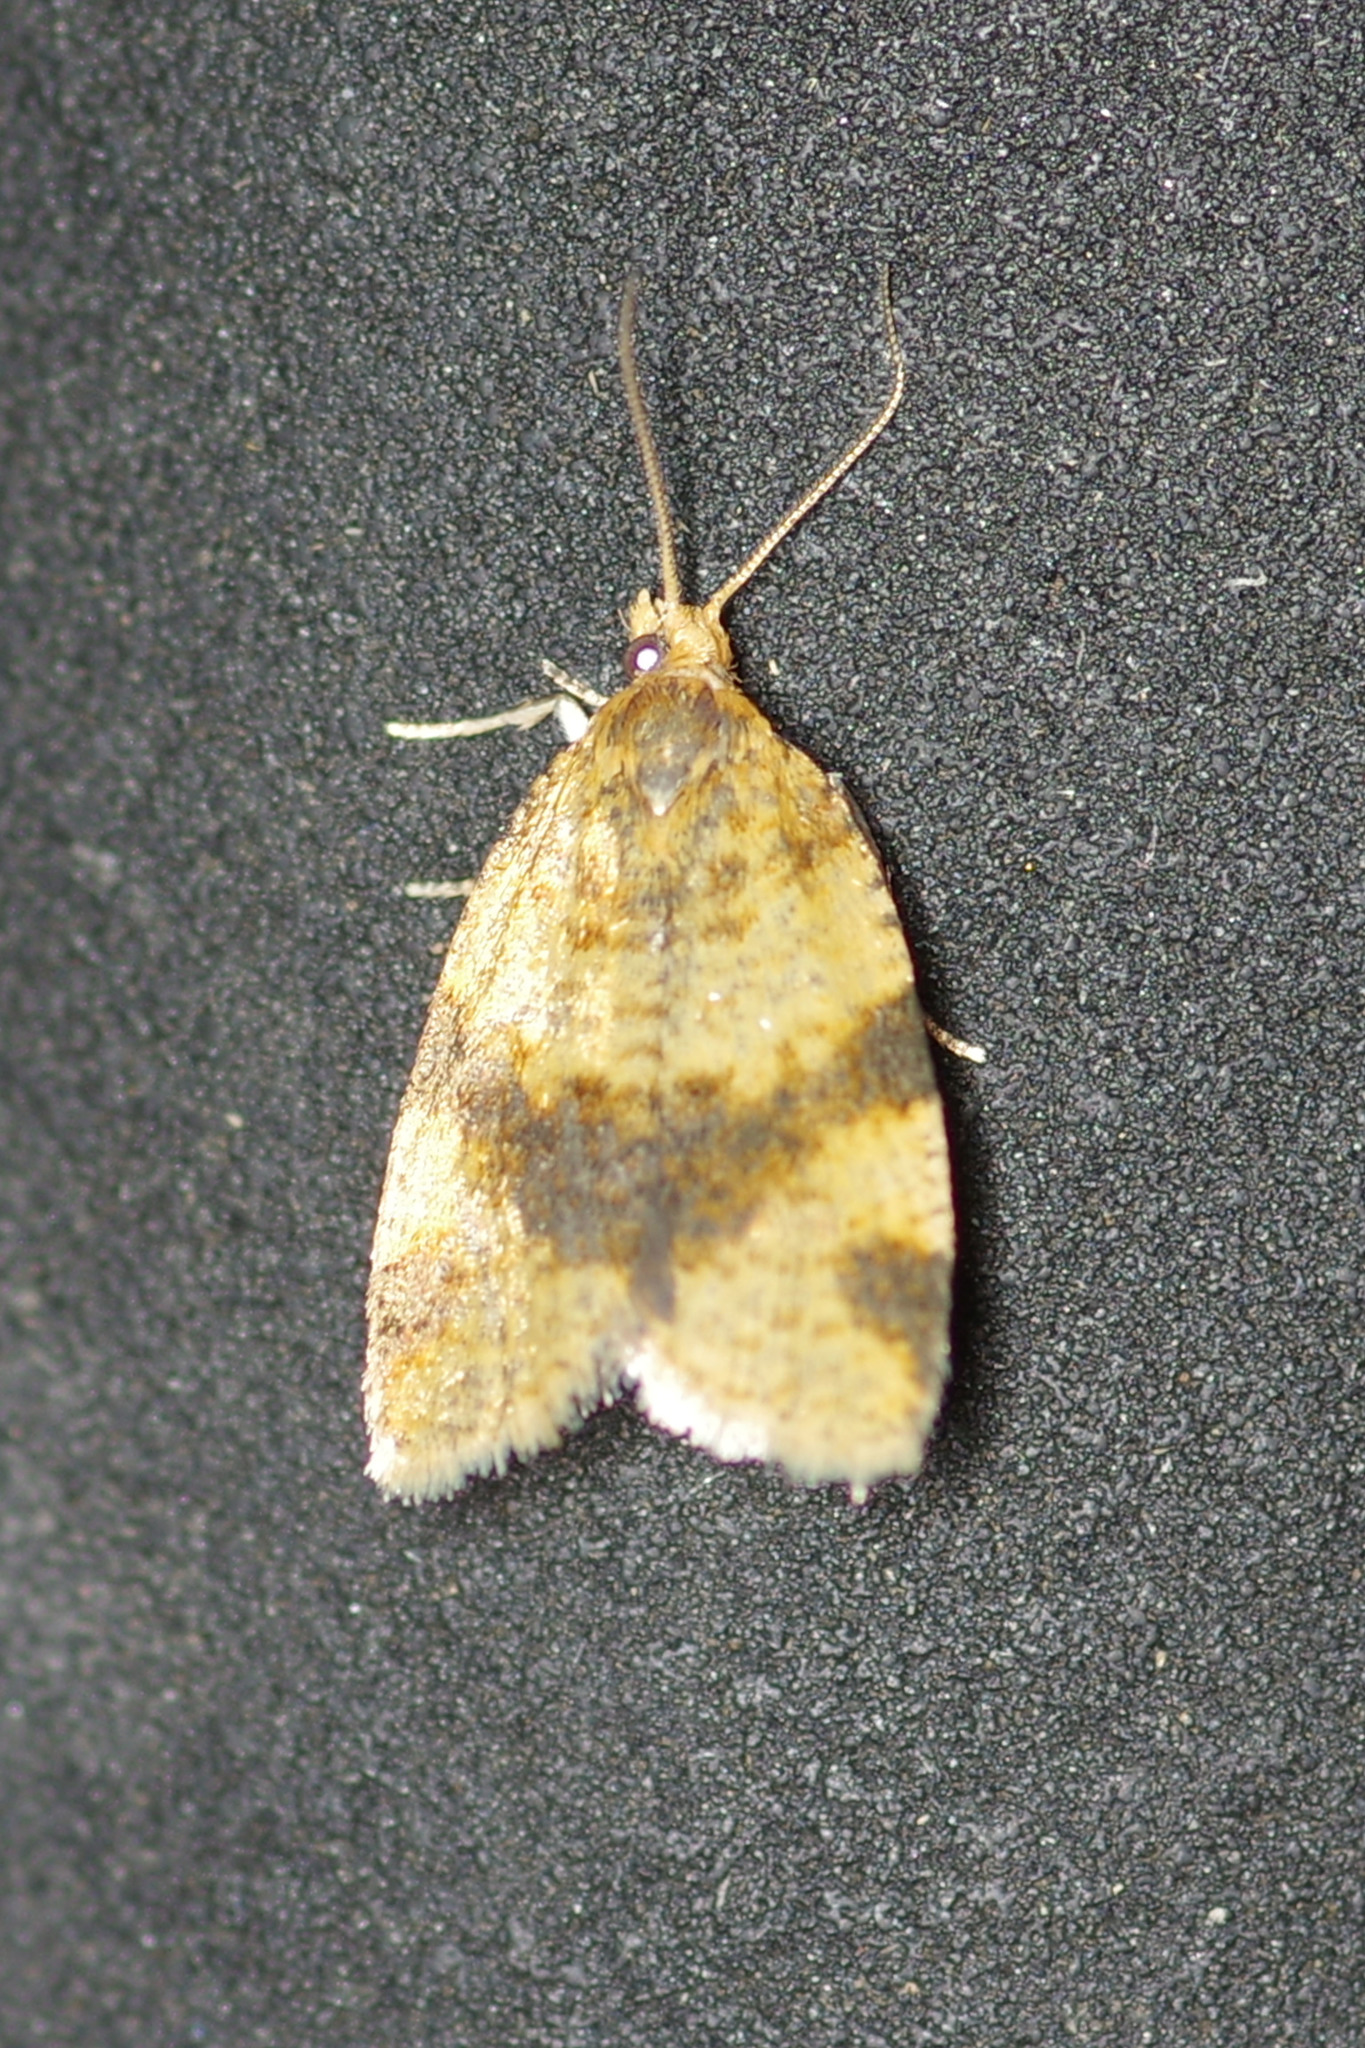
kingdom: Animalia
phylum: Arthropoda
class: Insecta
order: Lepidoptera
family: Tortricidae
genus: Epagoge
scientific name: Epagoge grotiana
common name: Brown-barred twist
